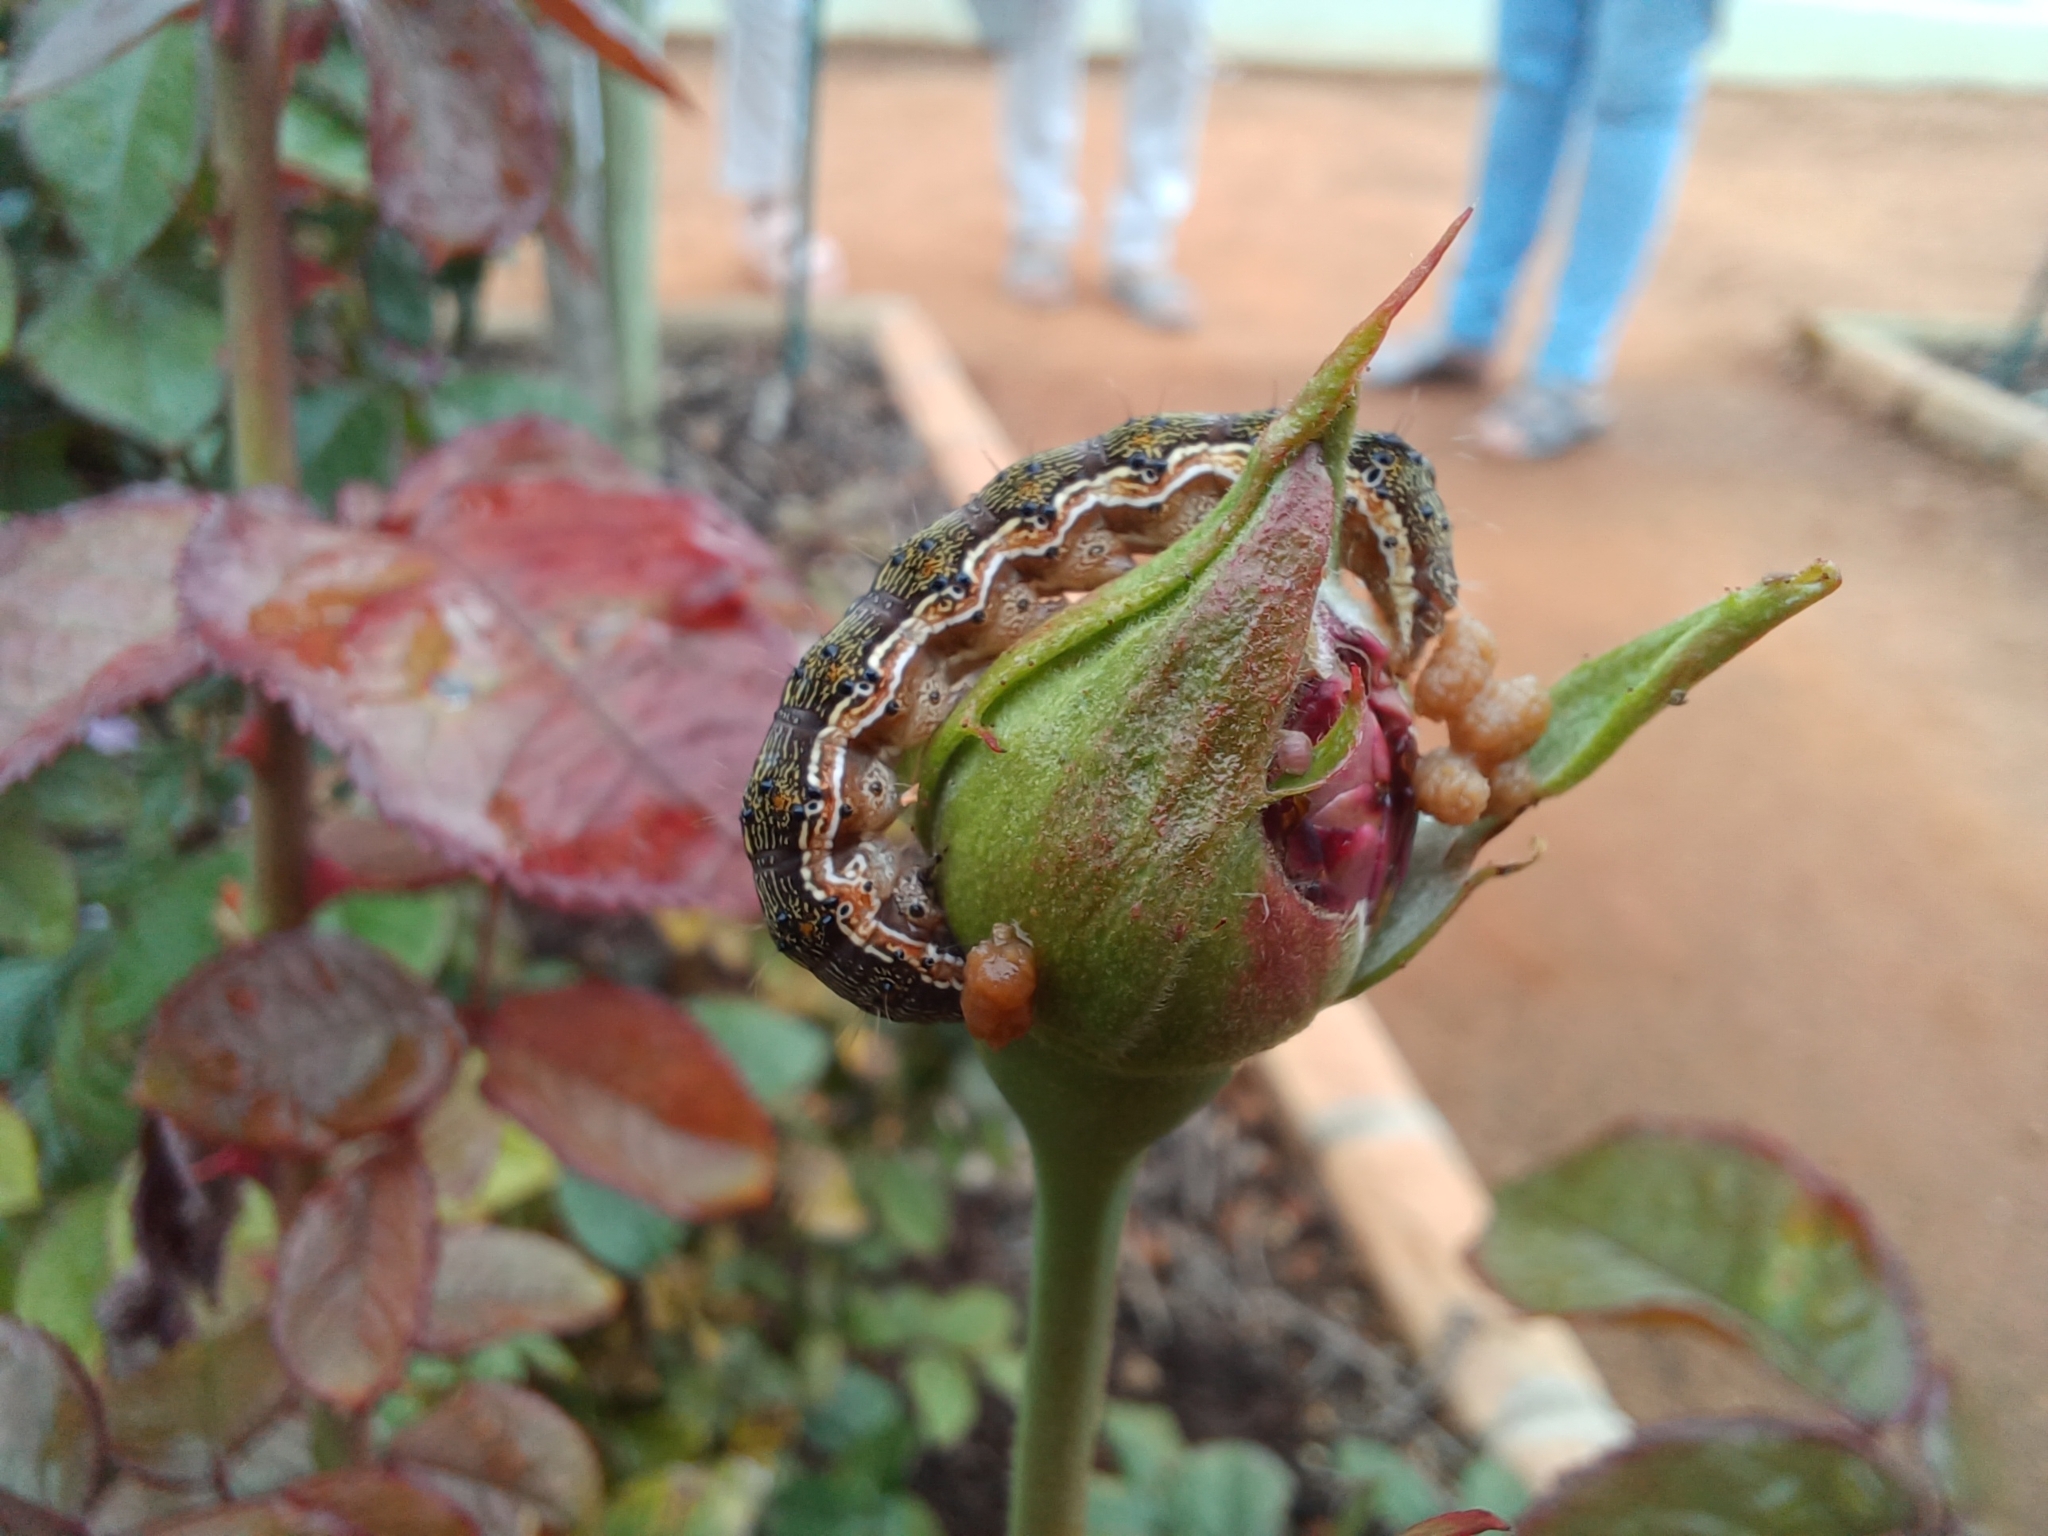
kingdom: Animalia
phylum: Arthropoda
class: Insecta
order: Lepidoptera
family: Noctuidae
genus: Helicoverpa
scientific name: Helicoverpa armigera
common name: Cotton bollworm
